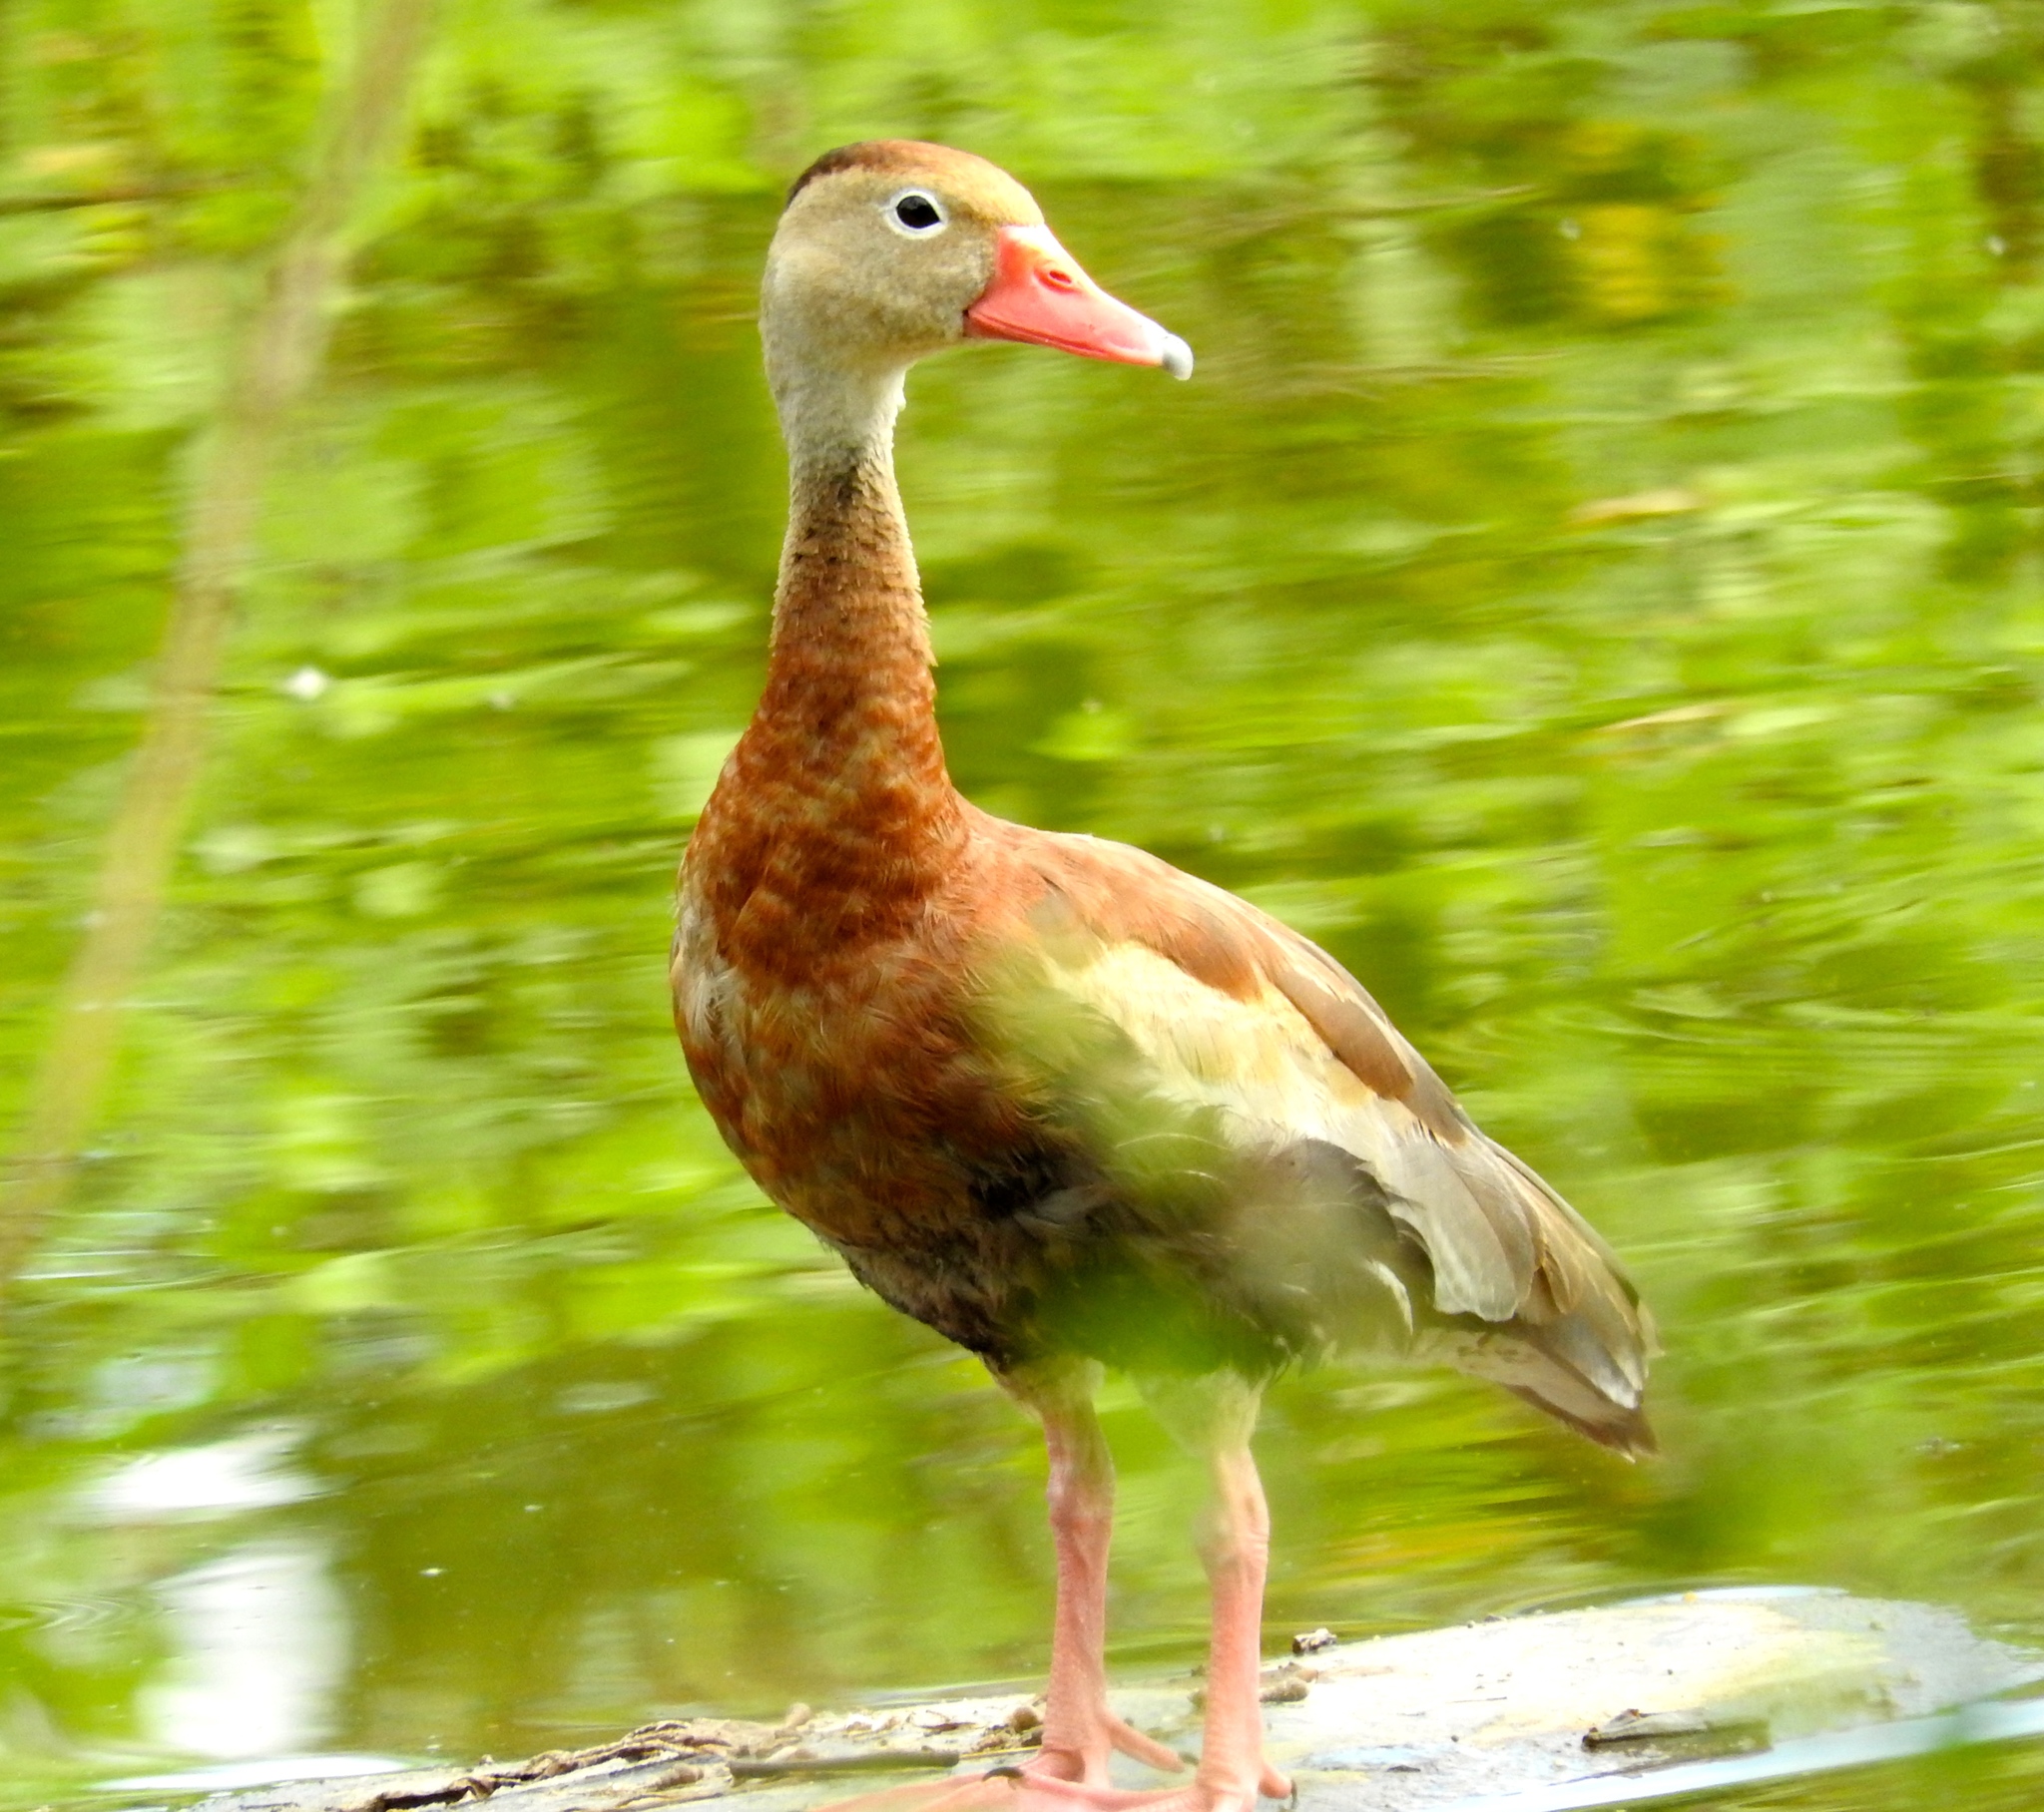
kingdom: Animalia
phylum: Chordata
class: Aves
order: Anseriformes
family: Anatidae
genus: Dendrocygna
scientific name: Dendrocygna autumnalis
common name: Black-bellied whistling duck
